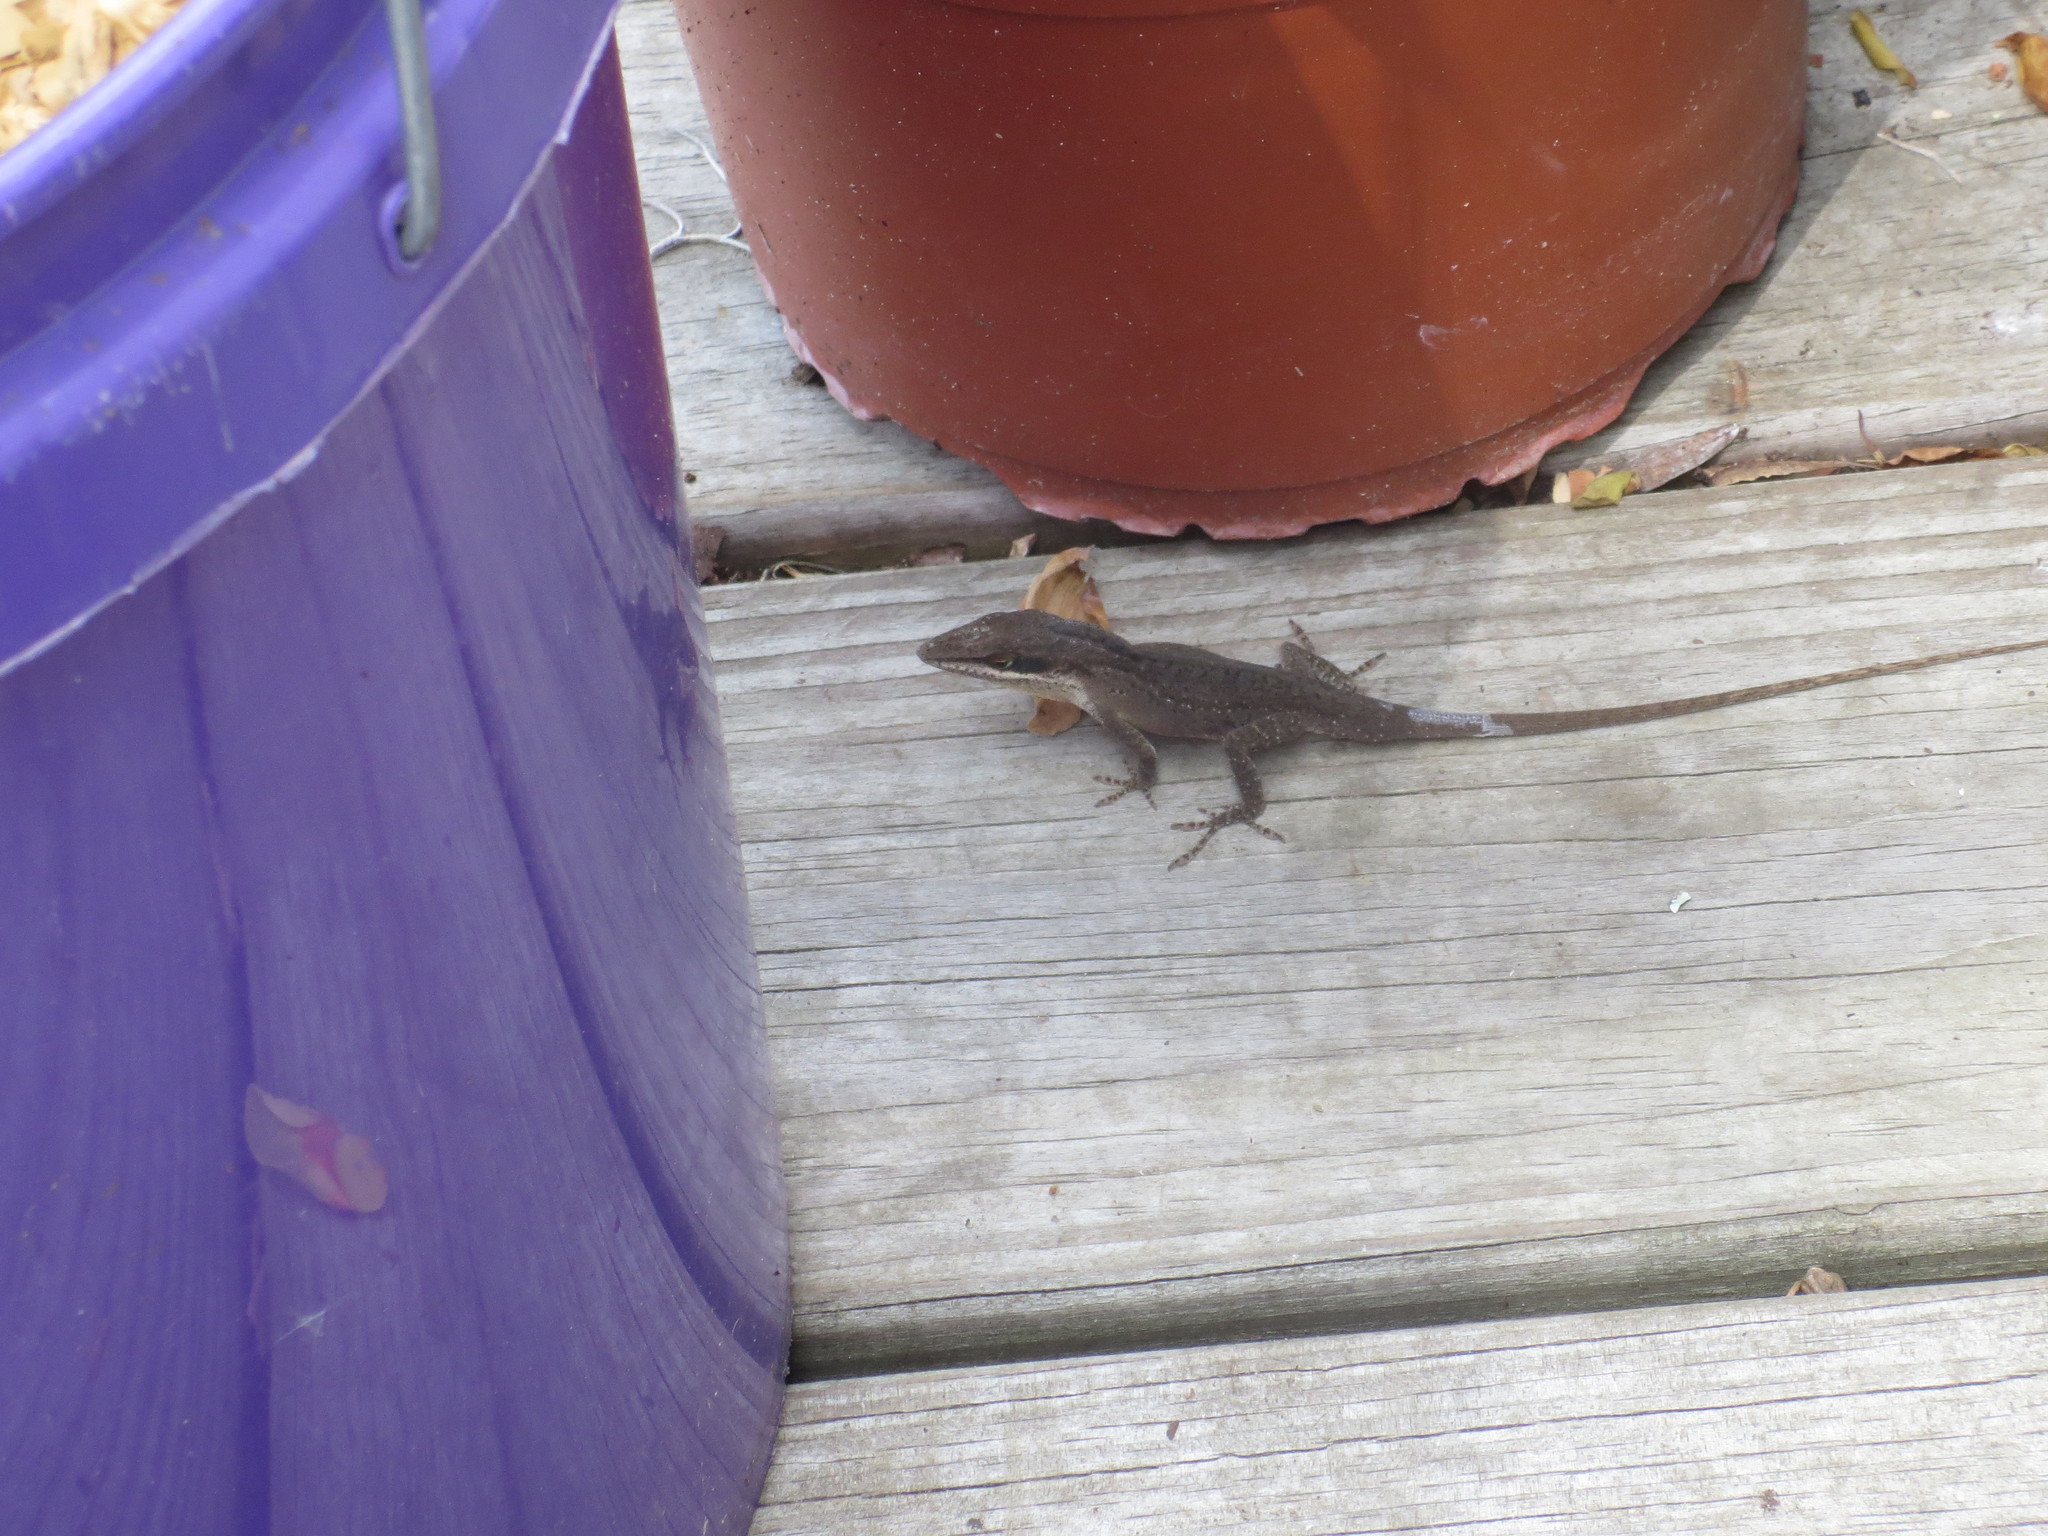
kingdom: Animalia
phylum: Chordata
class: Squamata
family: Dactyloidae
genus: Anolis
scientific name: Anolis carolinensis
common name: Green anole
